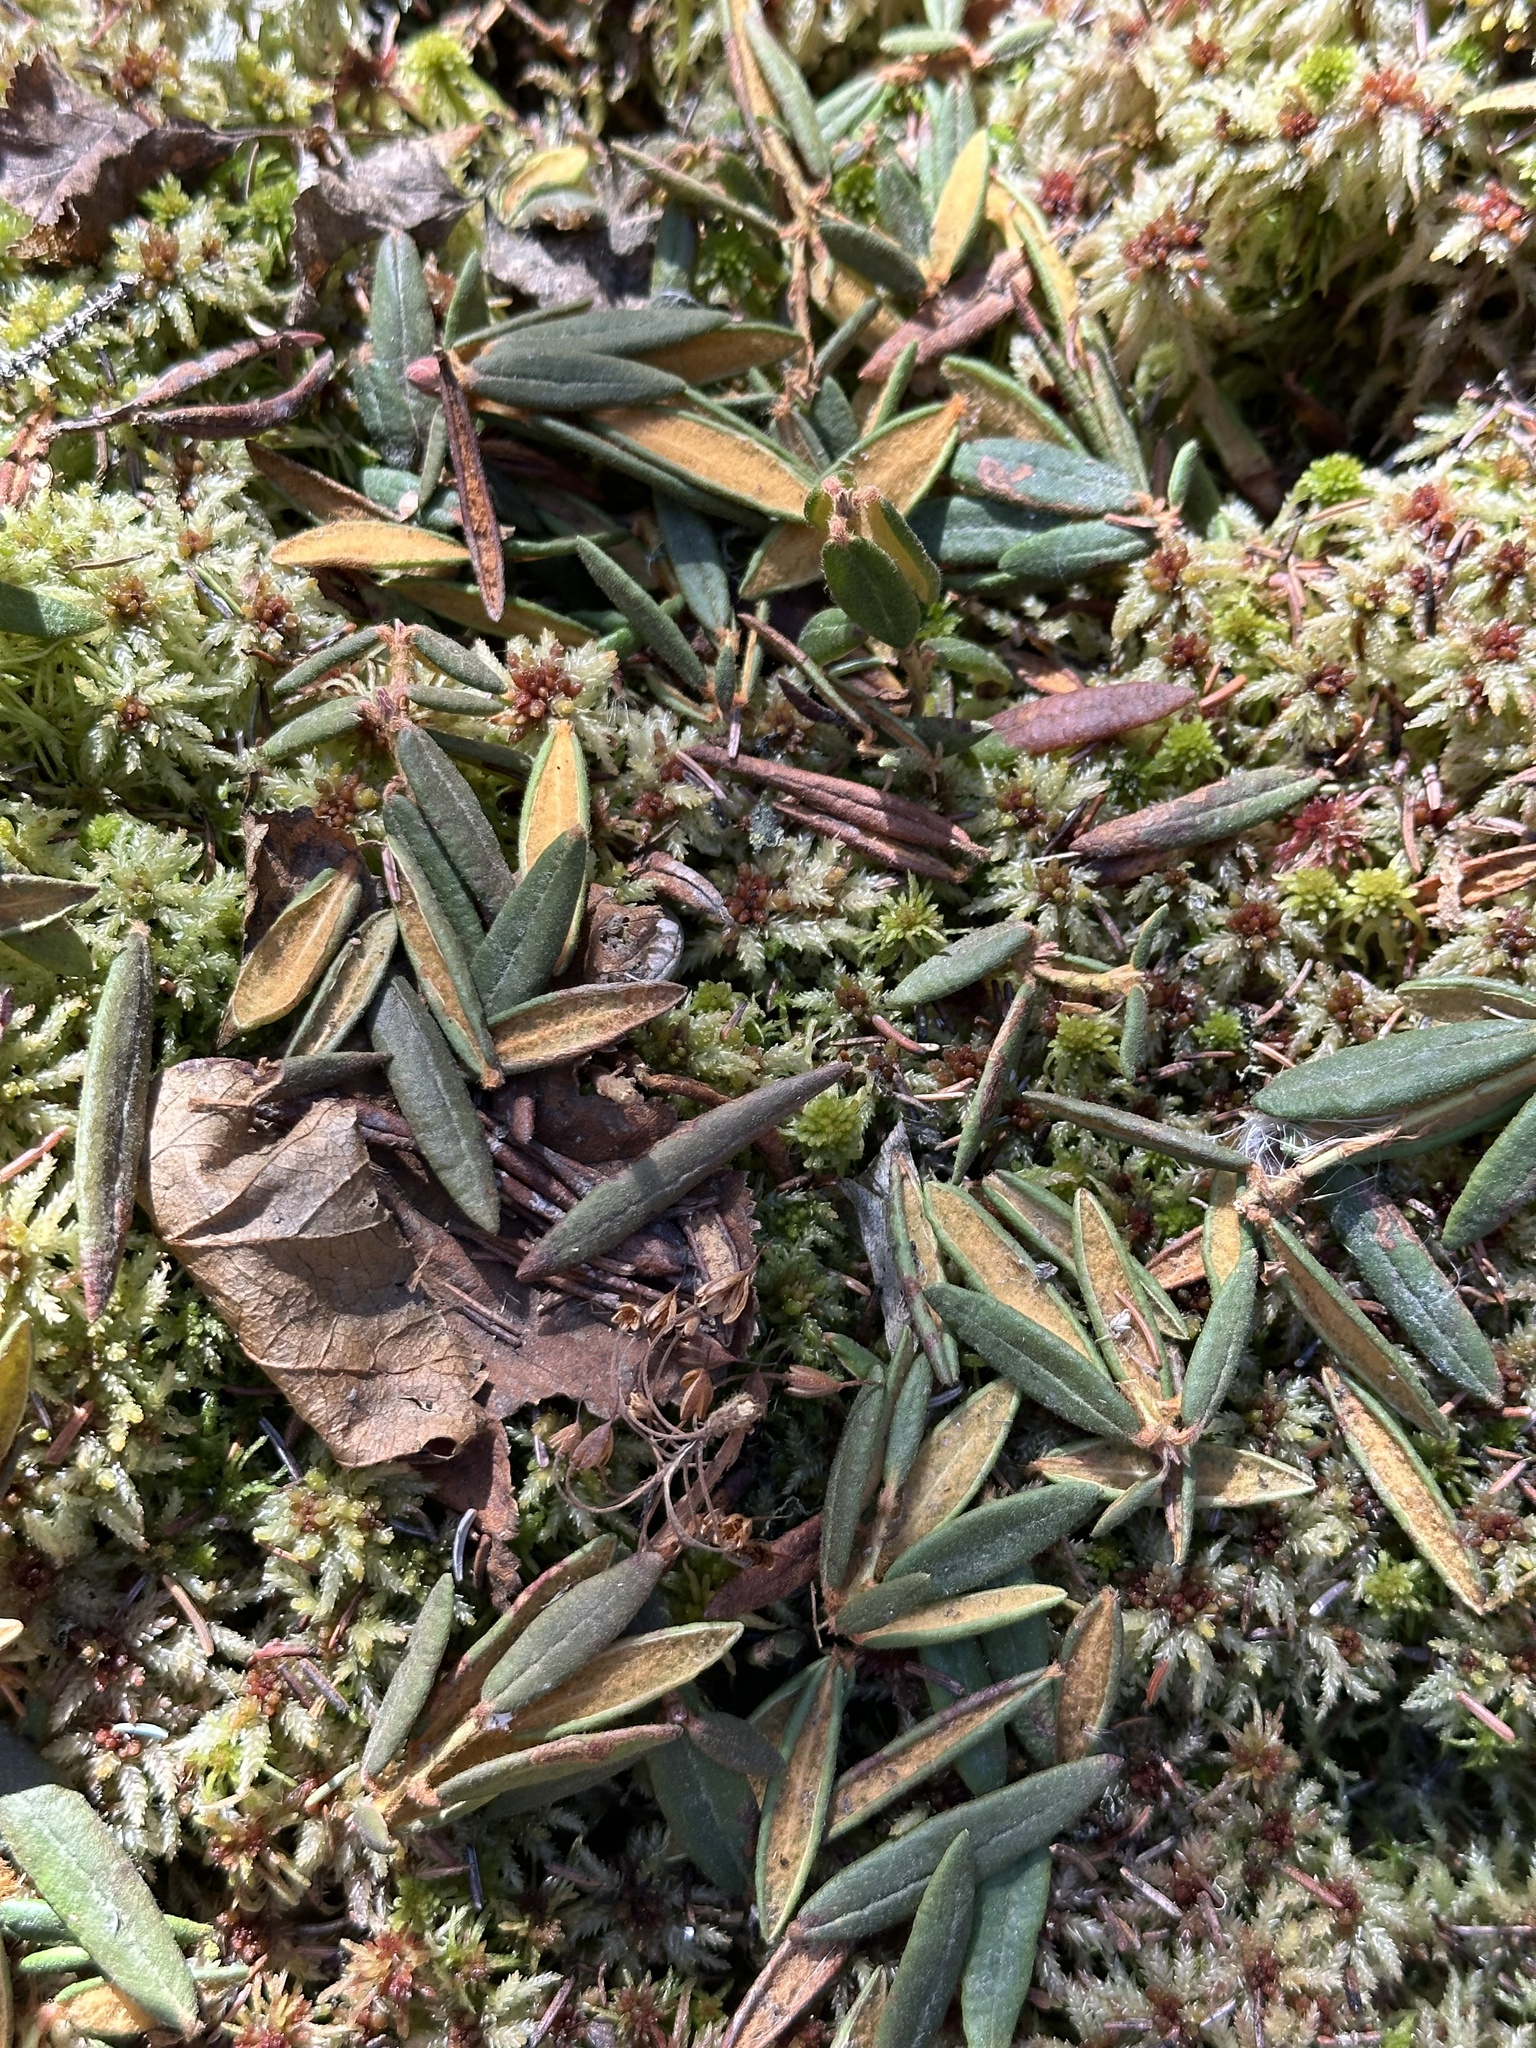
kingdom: Plantae
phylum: Tracheophyta
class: Magnoliopsida
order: Ericales
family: Ericaceae
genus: Rhododendron
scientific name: Rhododendron groenlandicum
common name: Bog labrador tea
